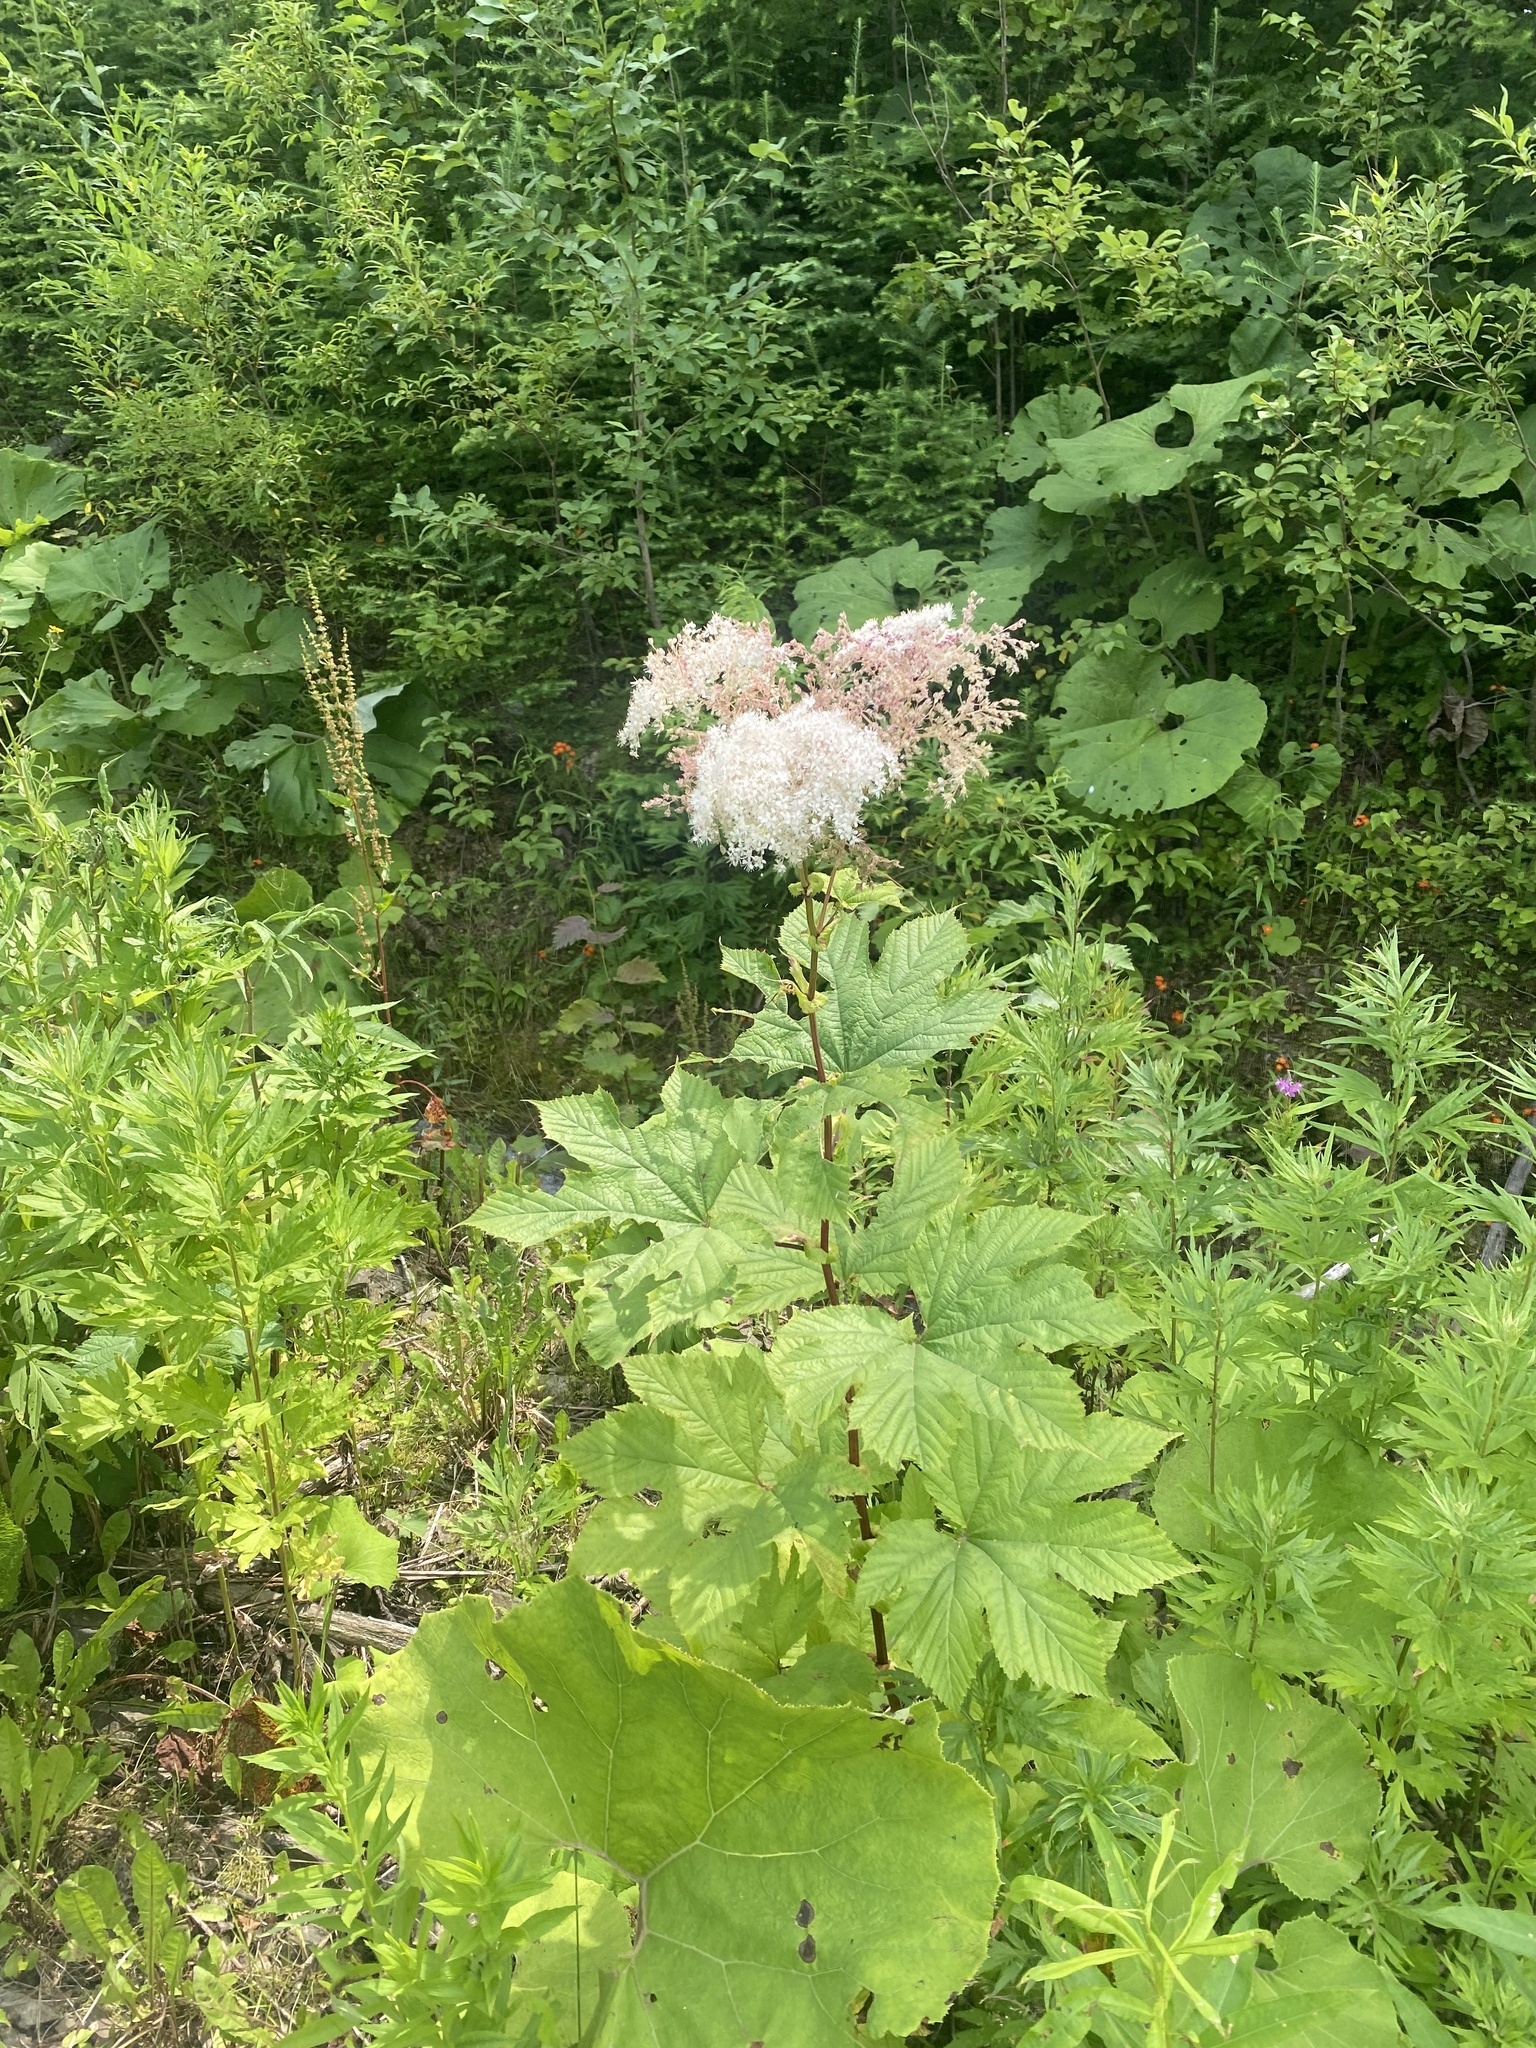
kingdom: Plantae
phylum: Tracheophyta
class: Magnoliopsida
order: Rosales
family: Rosaceae
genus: Filipendula
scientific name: Filipendula camtschatica
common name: Giant meadowsweet
